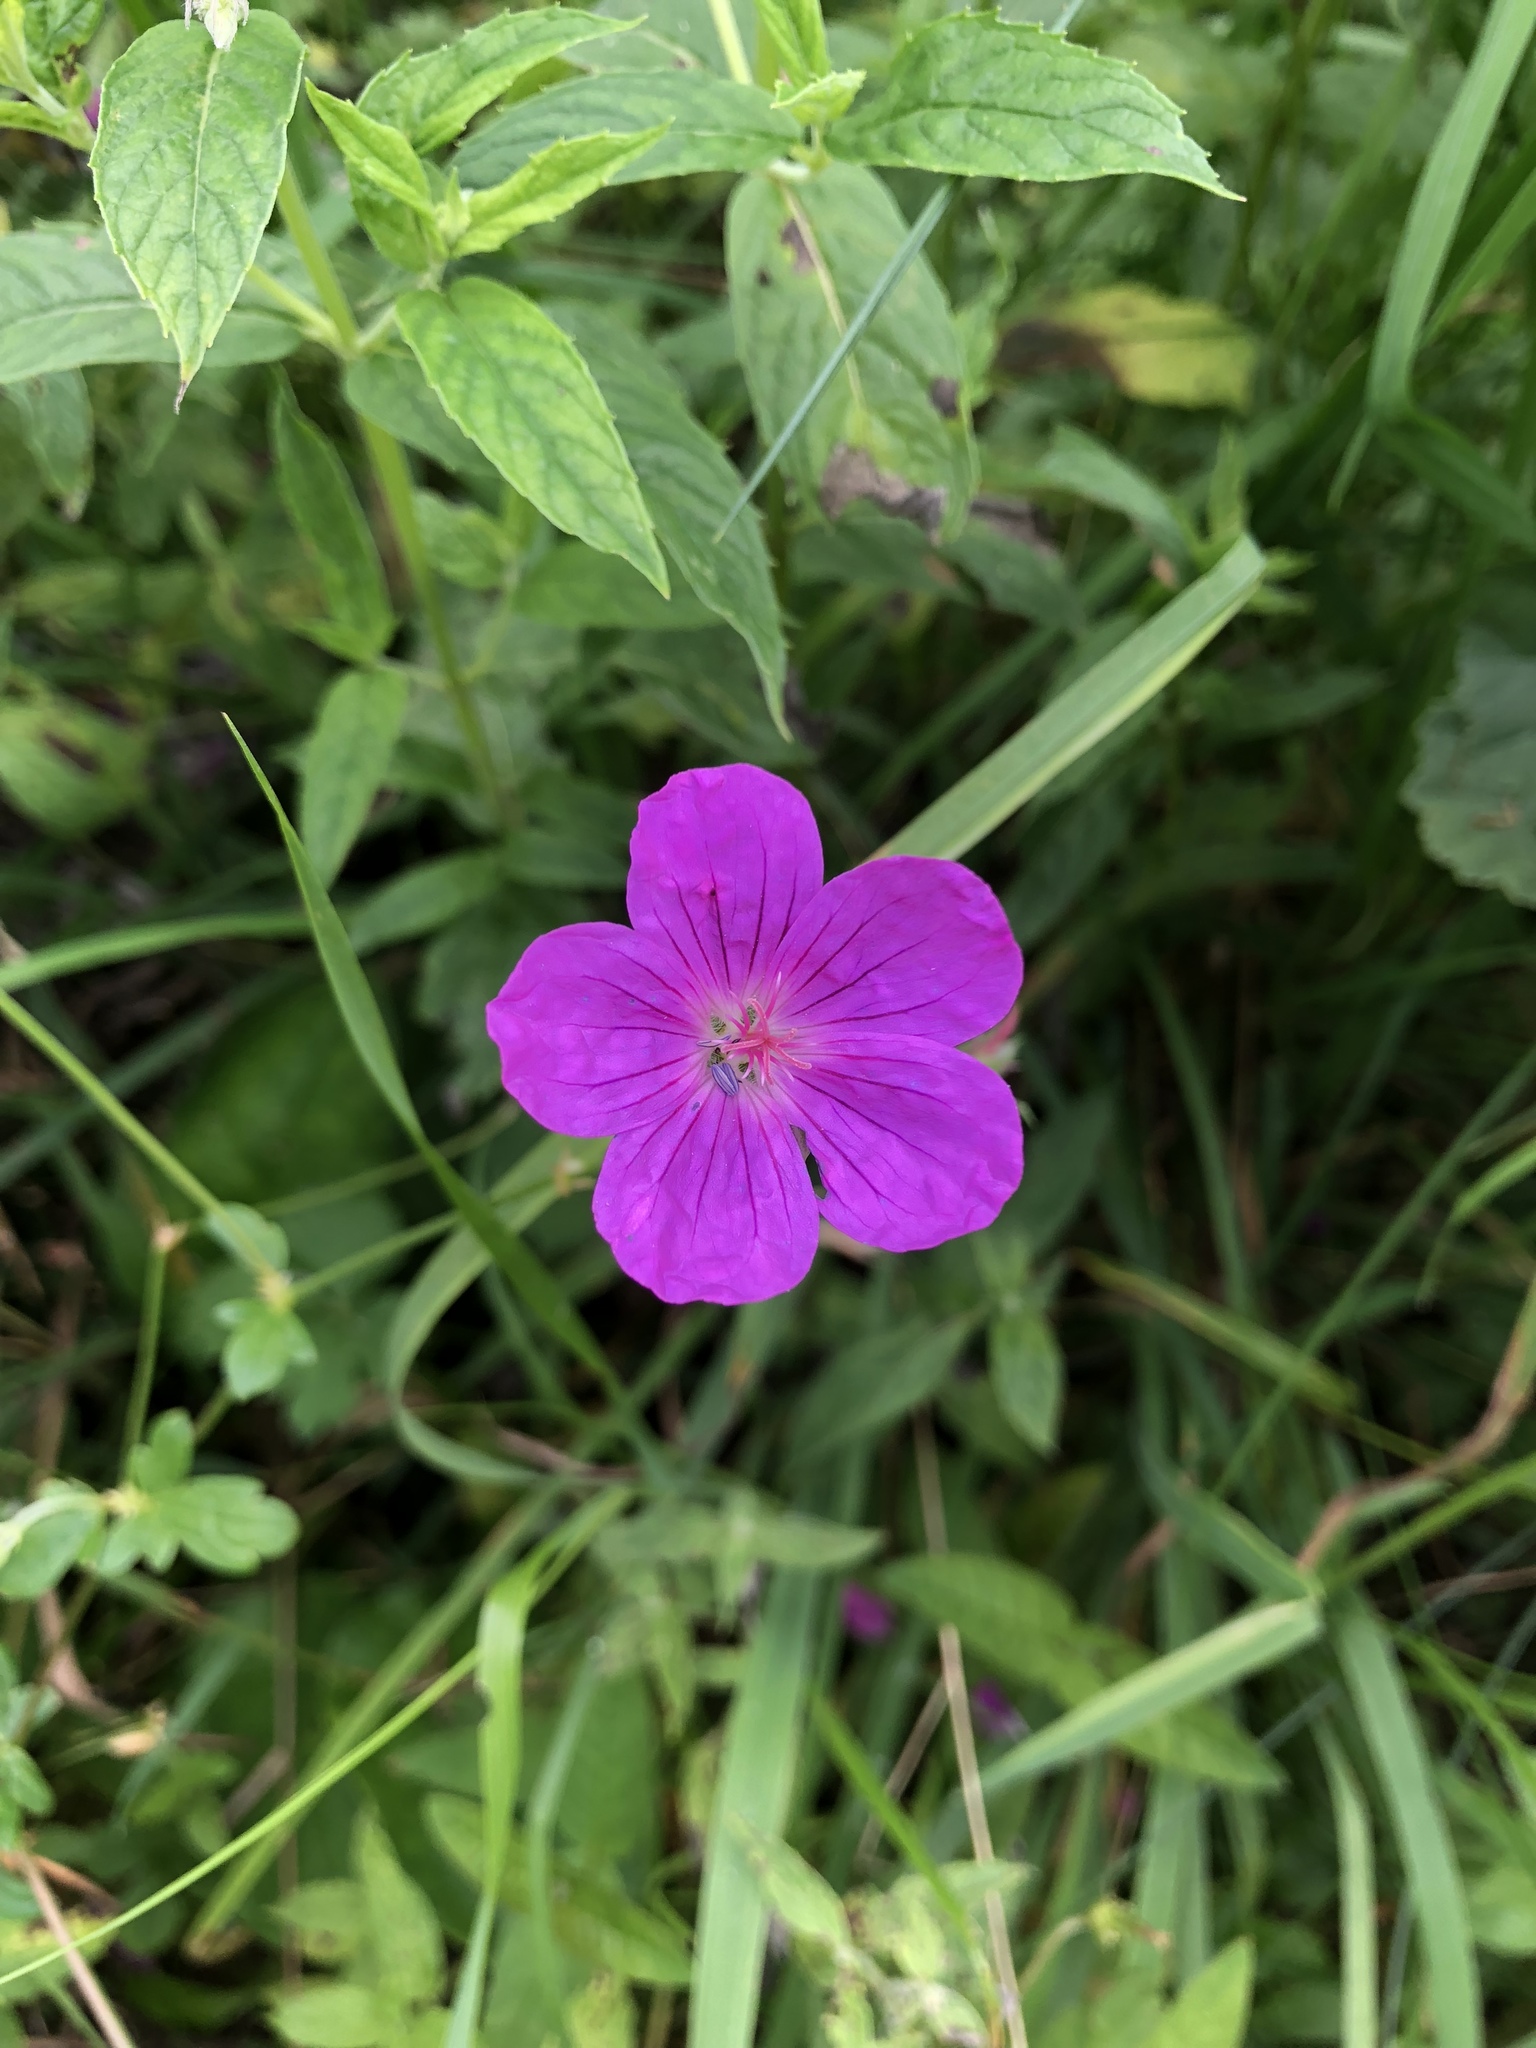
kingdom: Plantae
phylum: Tracheophyta
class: Magnoliopsida
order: Geraniales
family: Geraniaceae
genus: Geranium
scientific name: Geranium sanguineum
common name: Bloody crane's-bill
